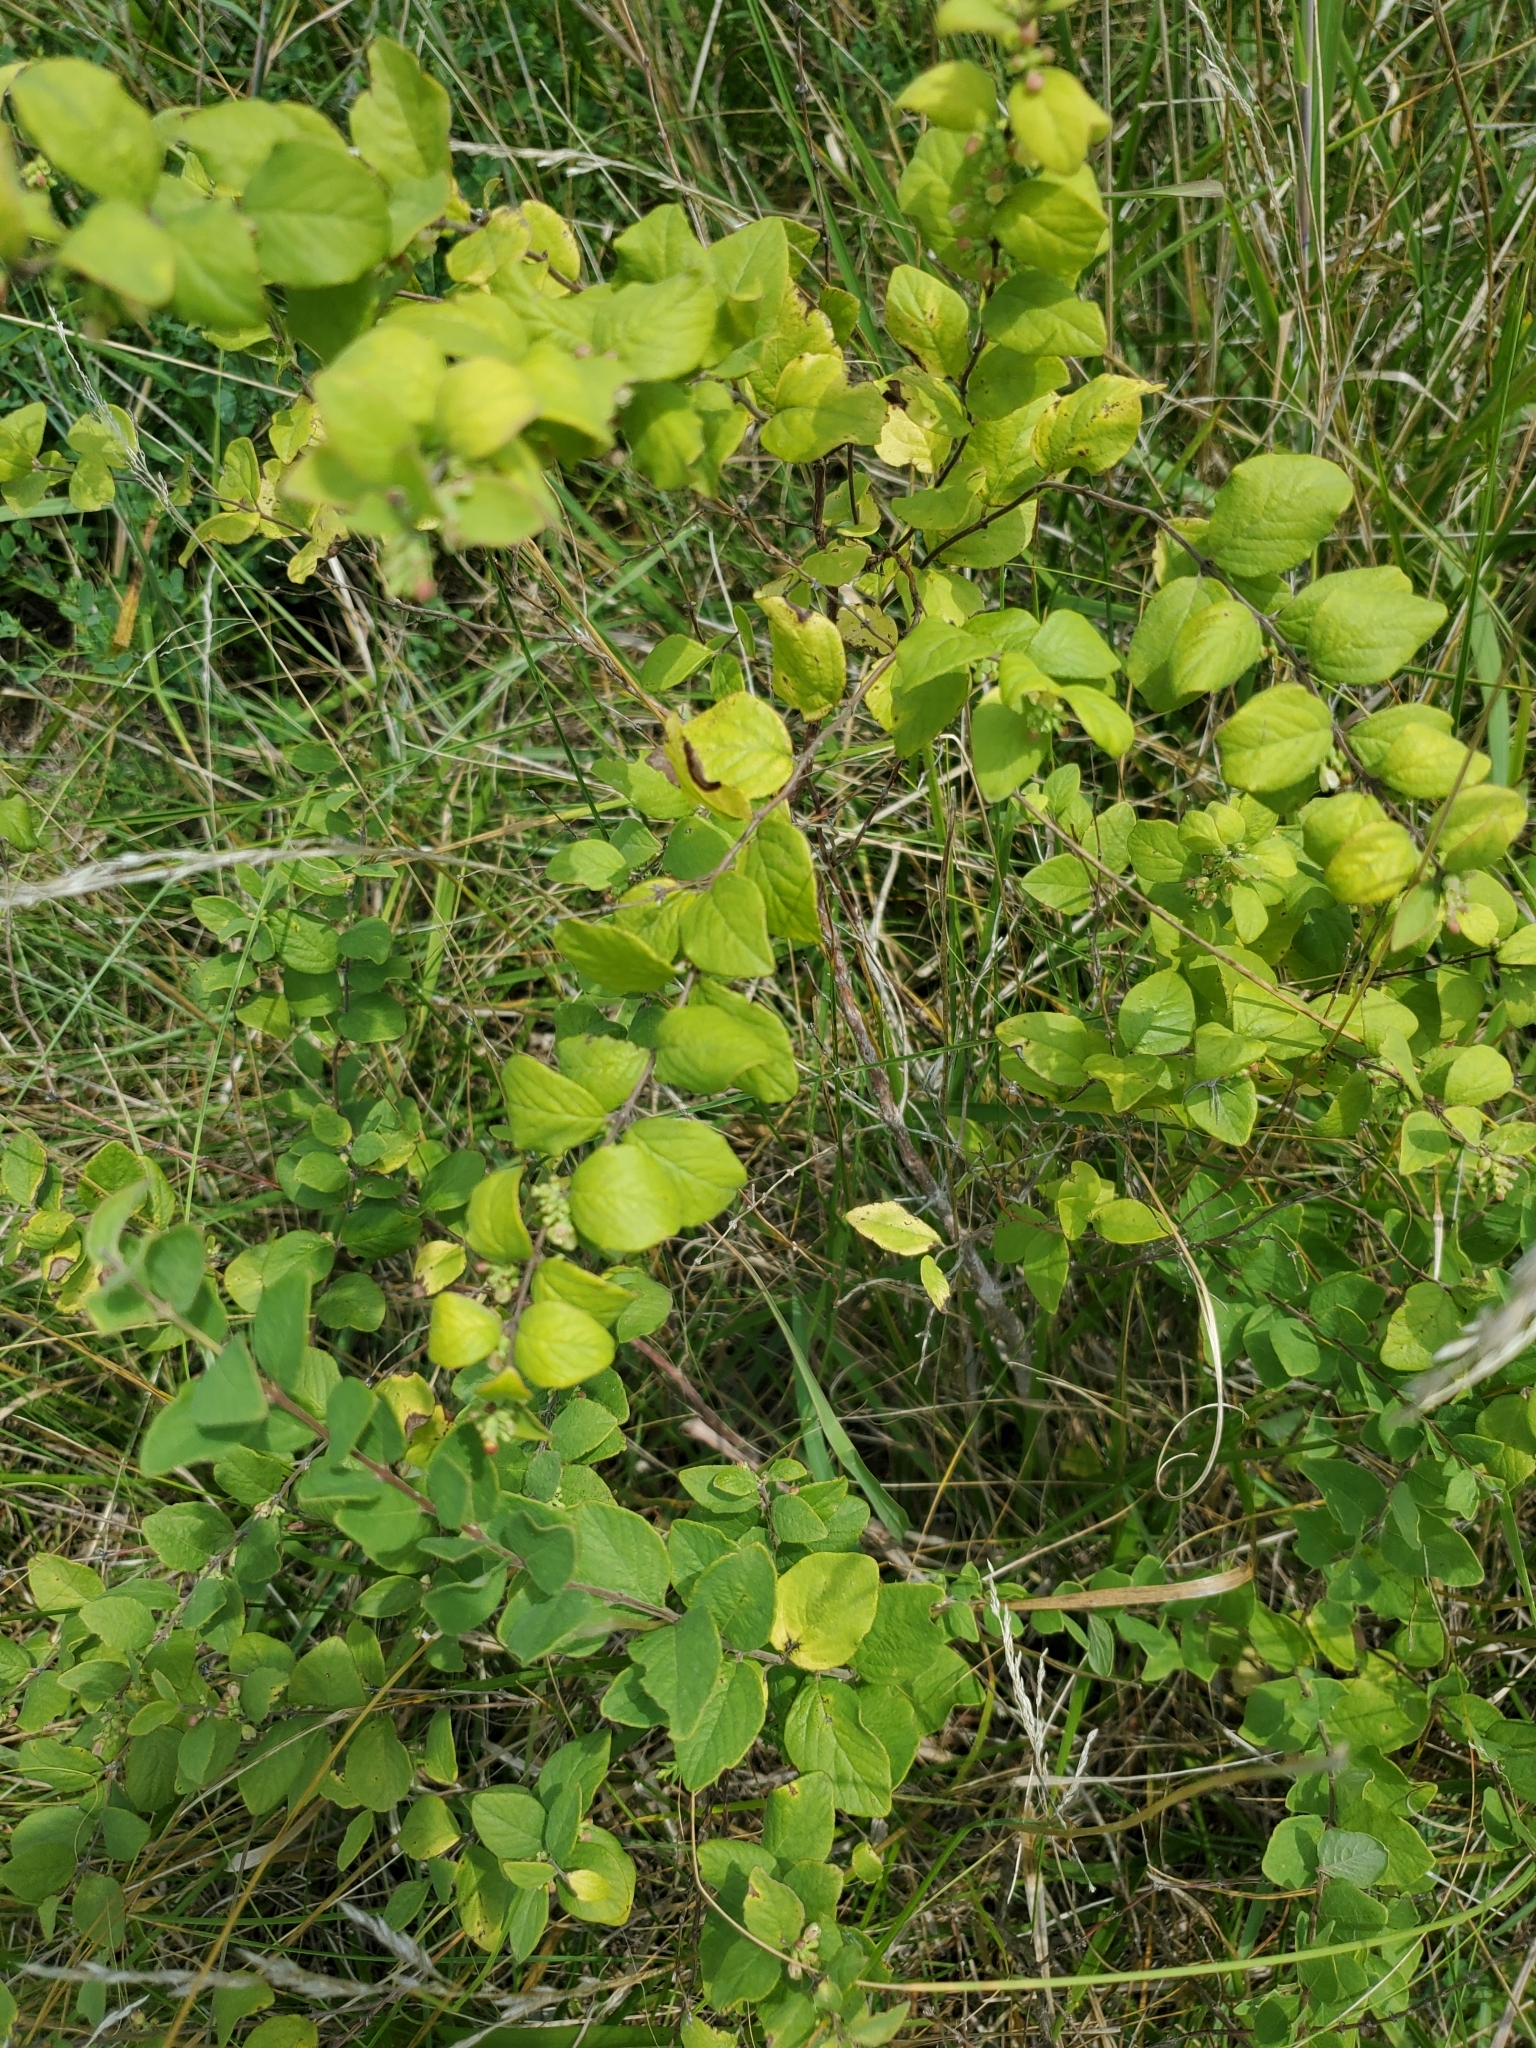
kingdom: Plantae
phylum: Tracheophyta
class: Magnoliopsida
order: Dipsacales
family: Caprifoliaceae
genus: Symphoricarpos
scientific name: Symphoricarpos orbiculatus
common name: Coralberry
